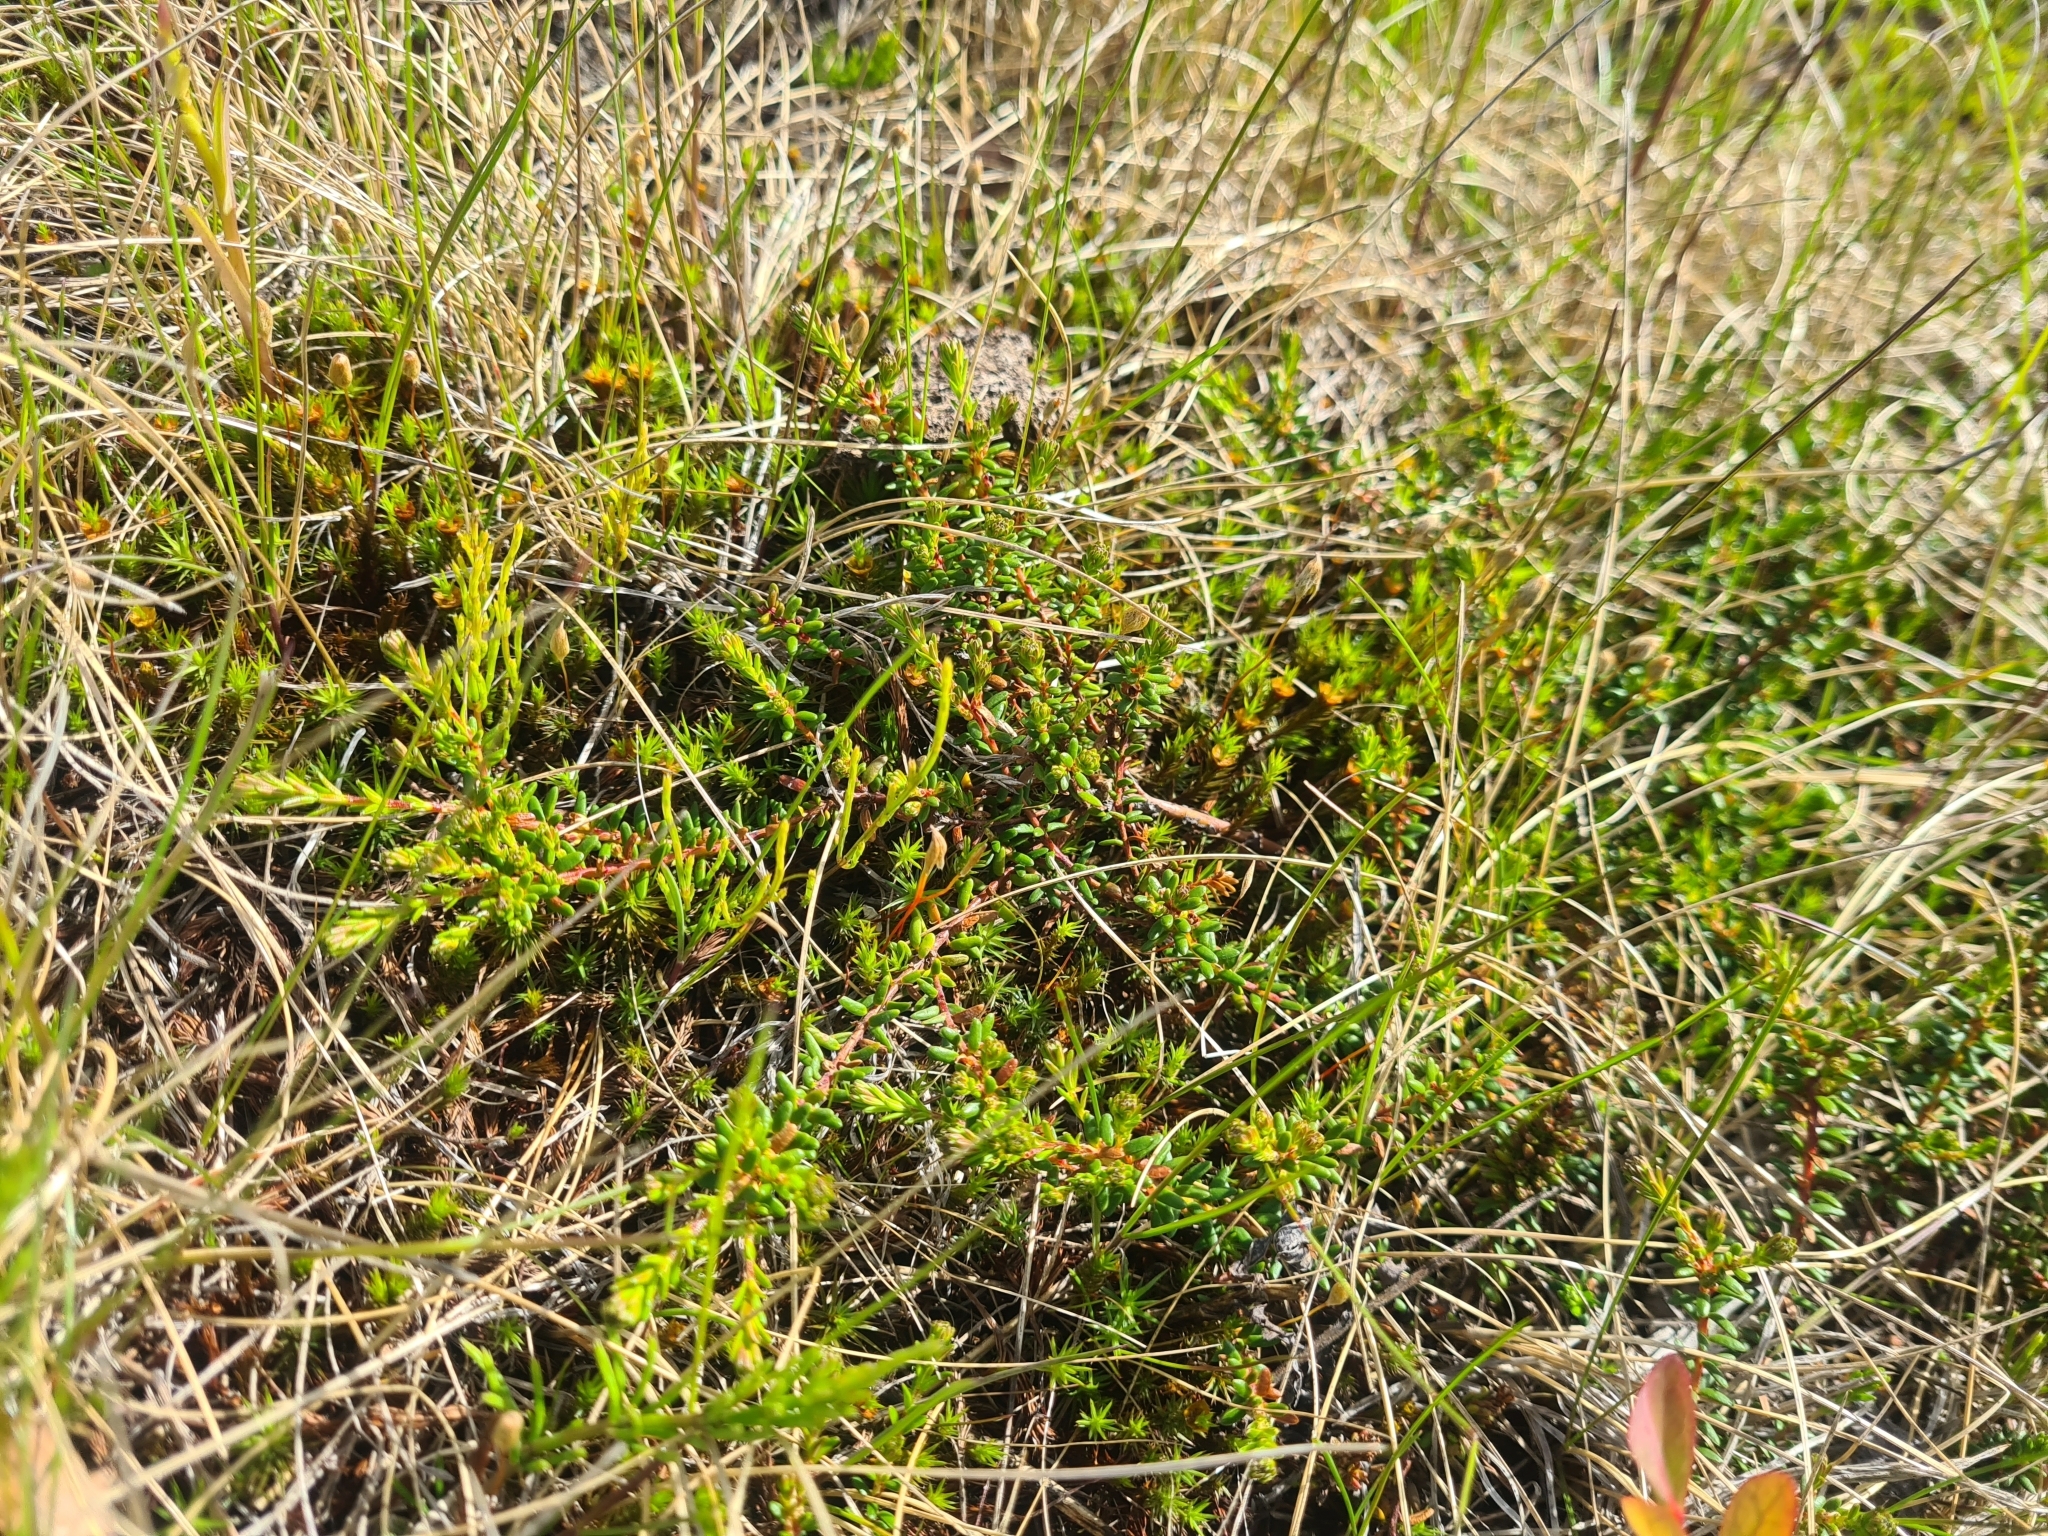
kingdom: Plantae
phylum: Tracheophyta
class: Magnoliopsida
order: Ericales
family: Ericaceae
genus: Empetrum
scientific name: Empetrum nigrum
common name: Black crowberry
